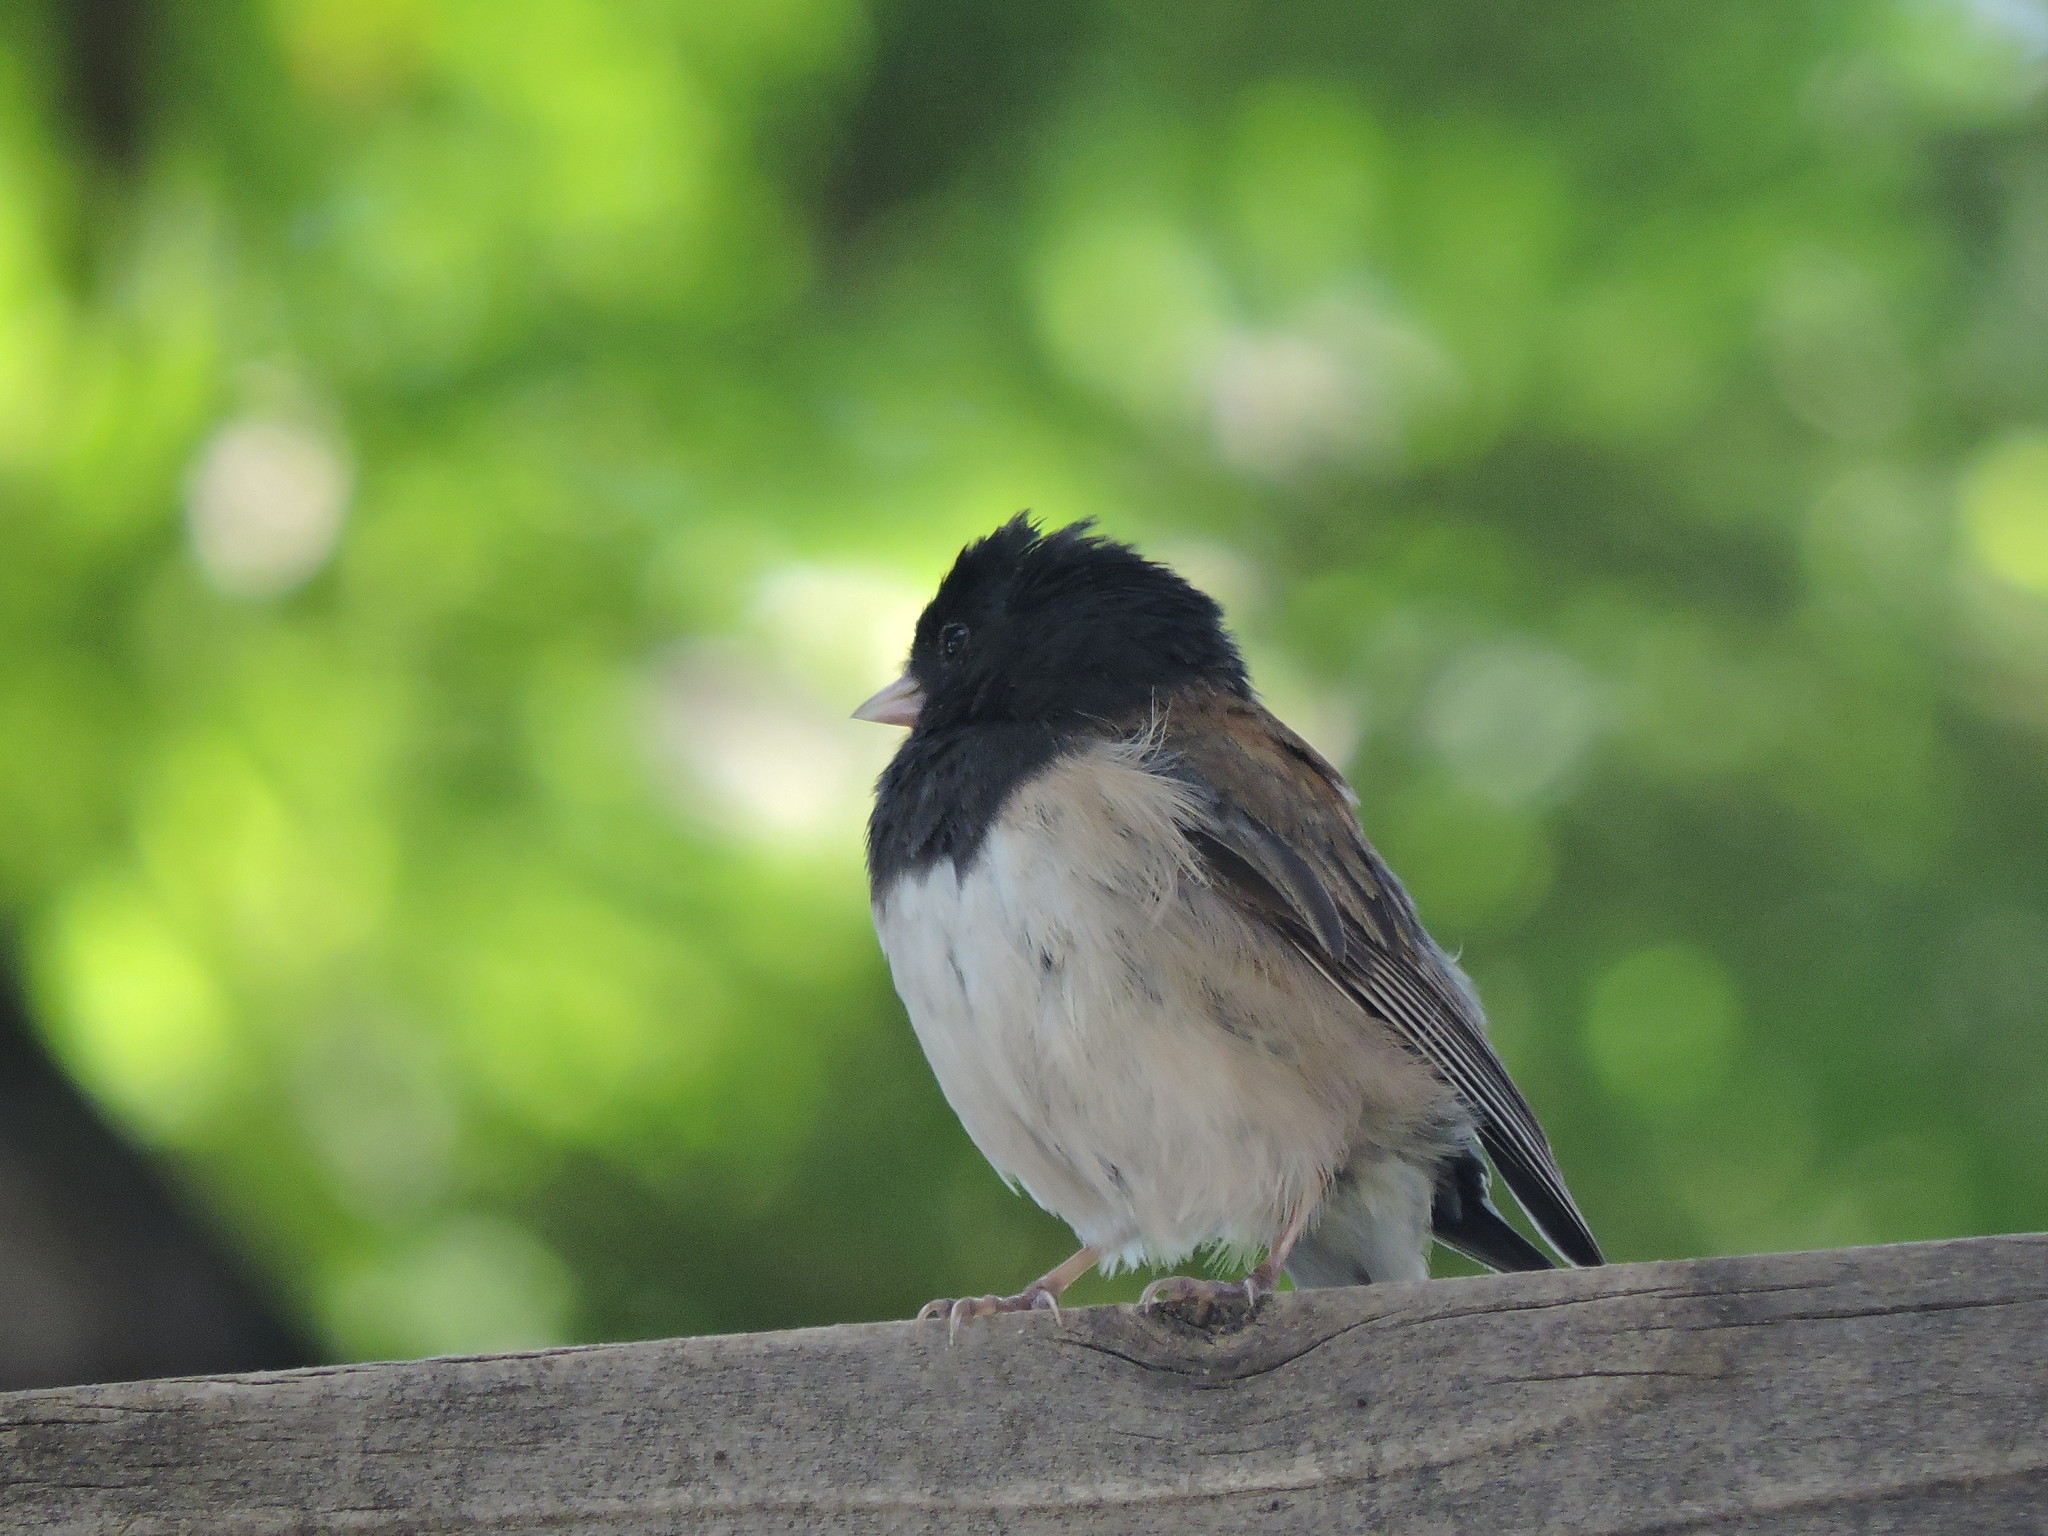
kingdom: Animalia
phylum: Chordata
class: Aves
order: Passeriformes
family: Passerellidae
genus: Junco
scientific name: Junco hyemalis
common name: Dark-eyed junco
